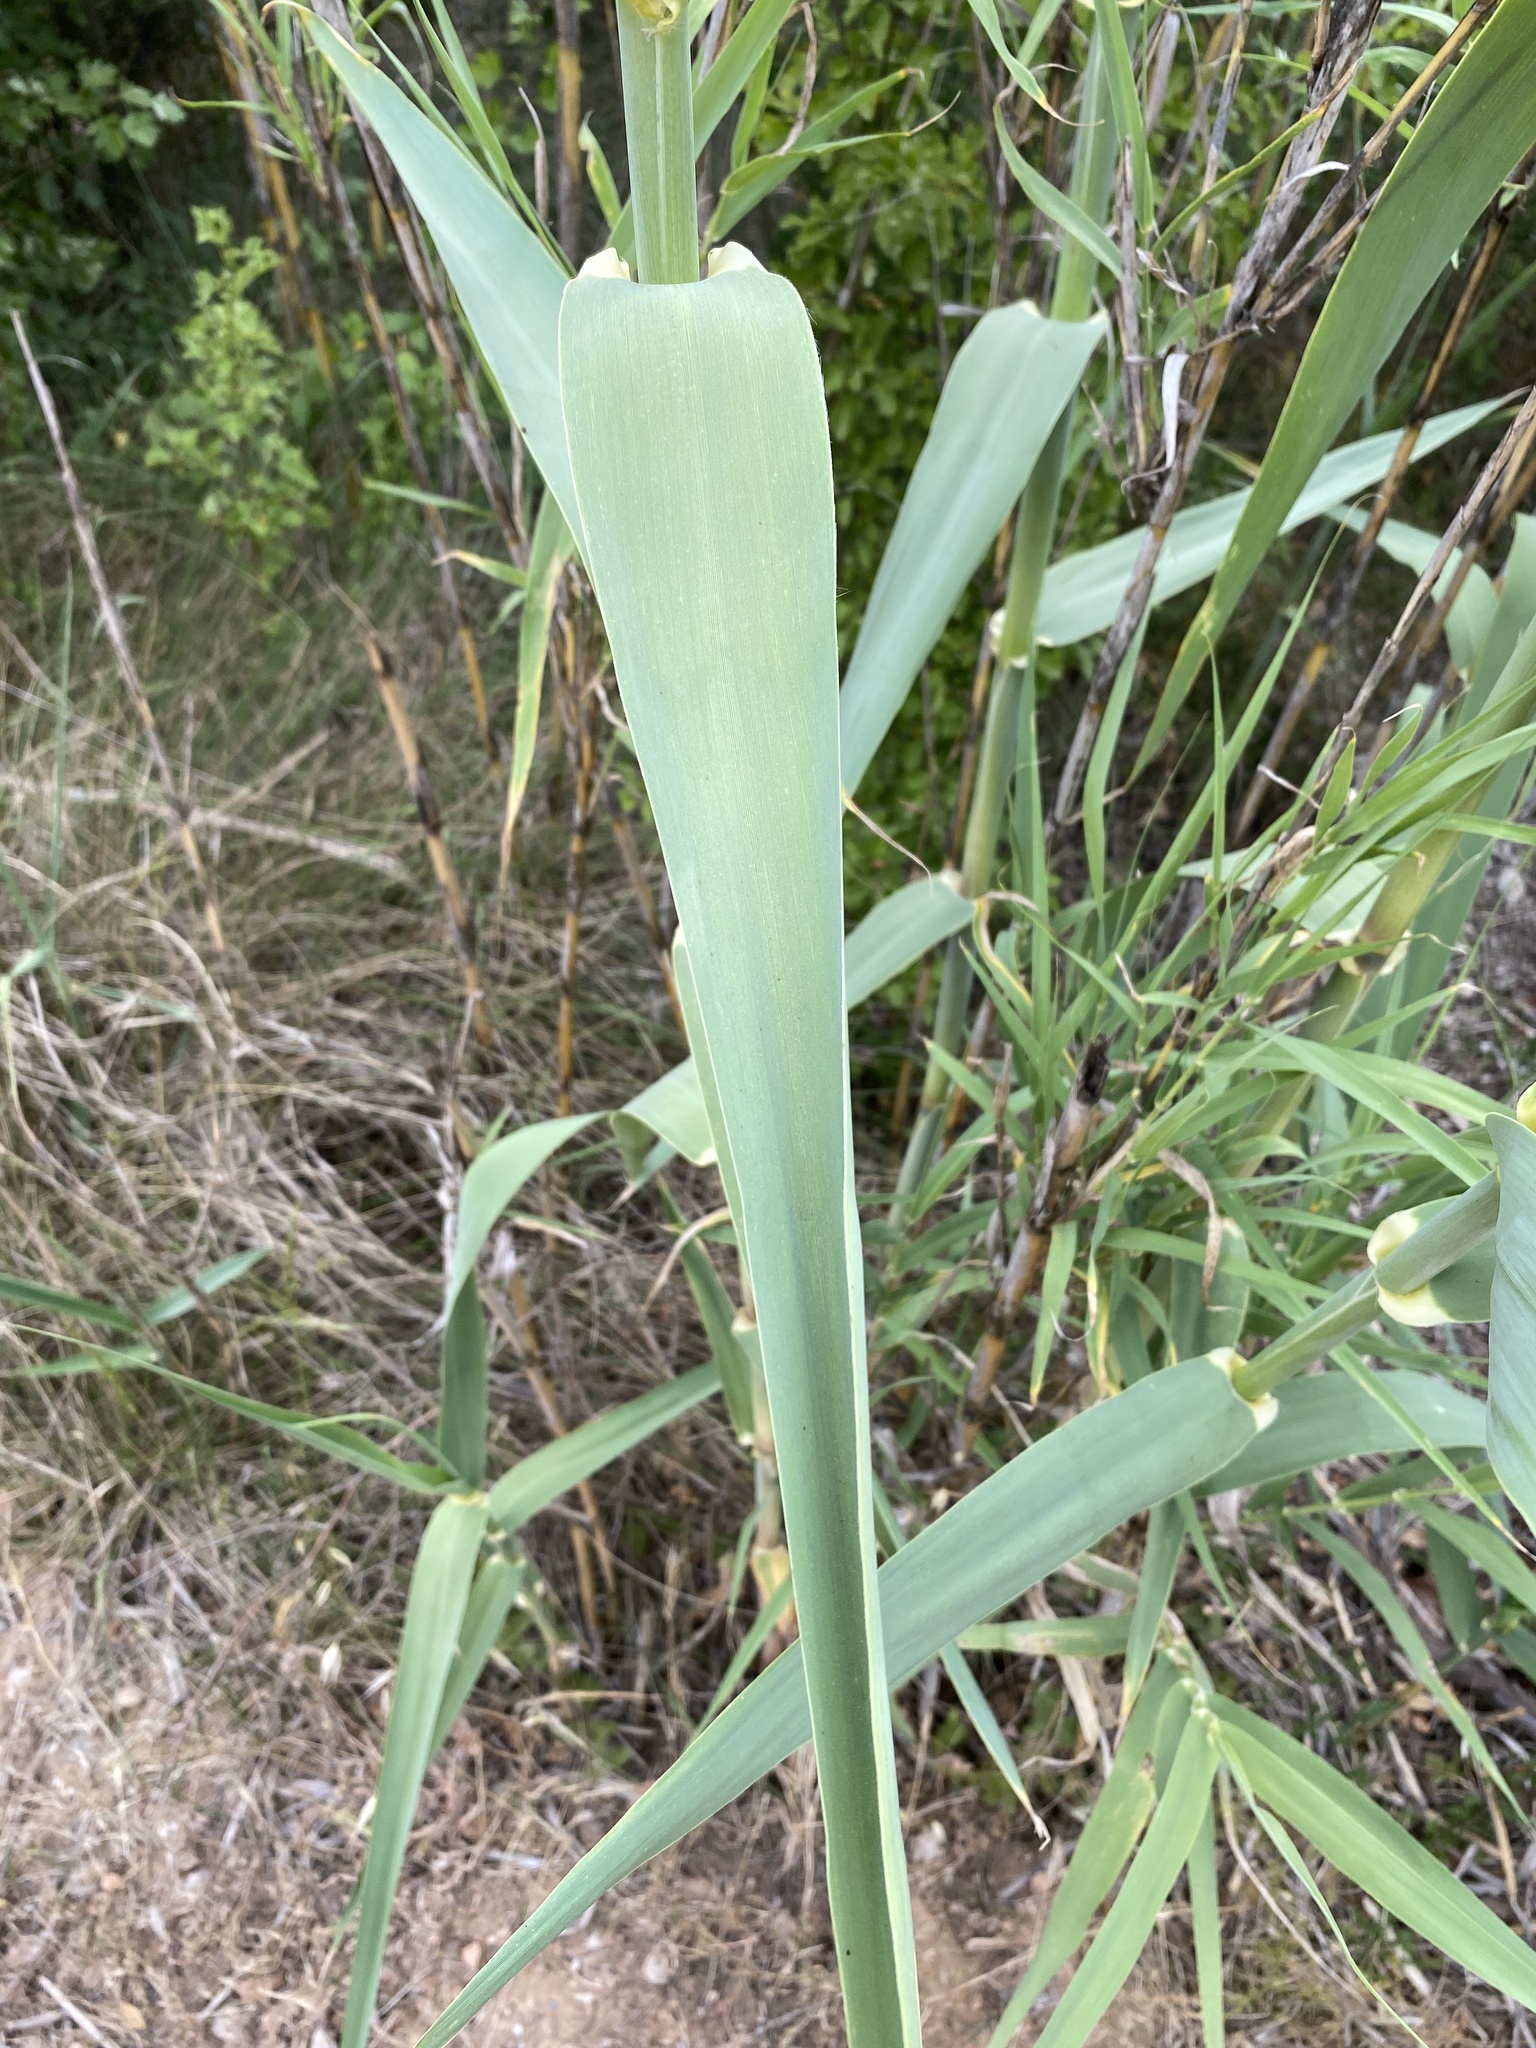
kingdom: Plantae
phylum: Tracheophyta
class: Liliopsida
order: Poales
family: Poaceae
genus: Arundo
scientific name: Arundo donax
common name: Giant reed
